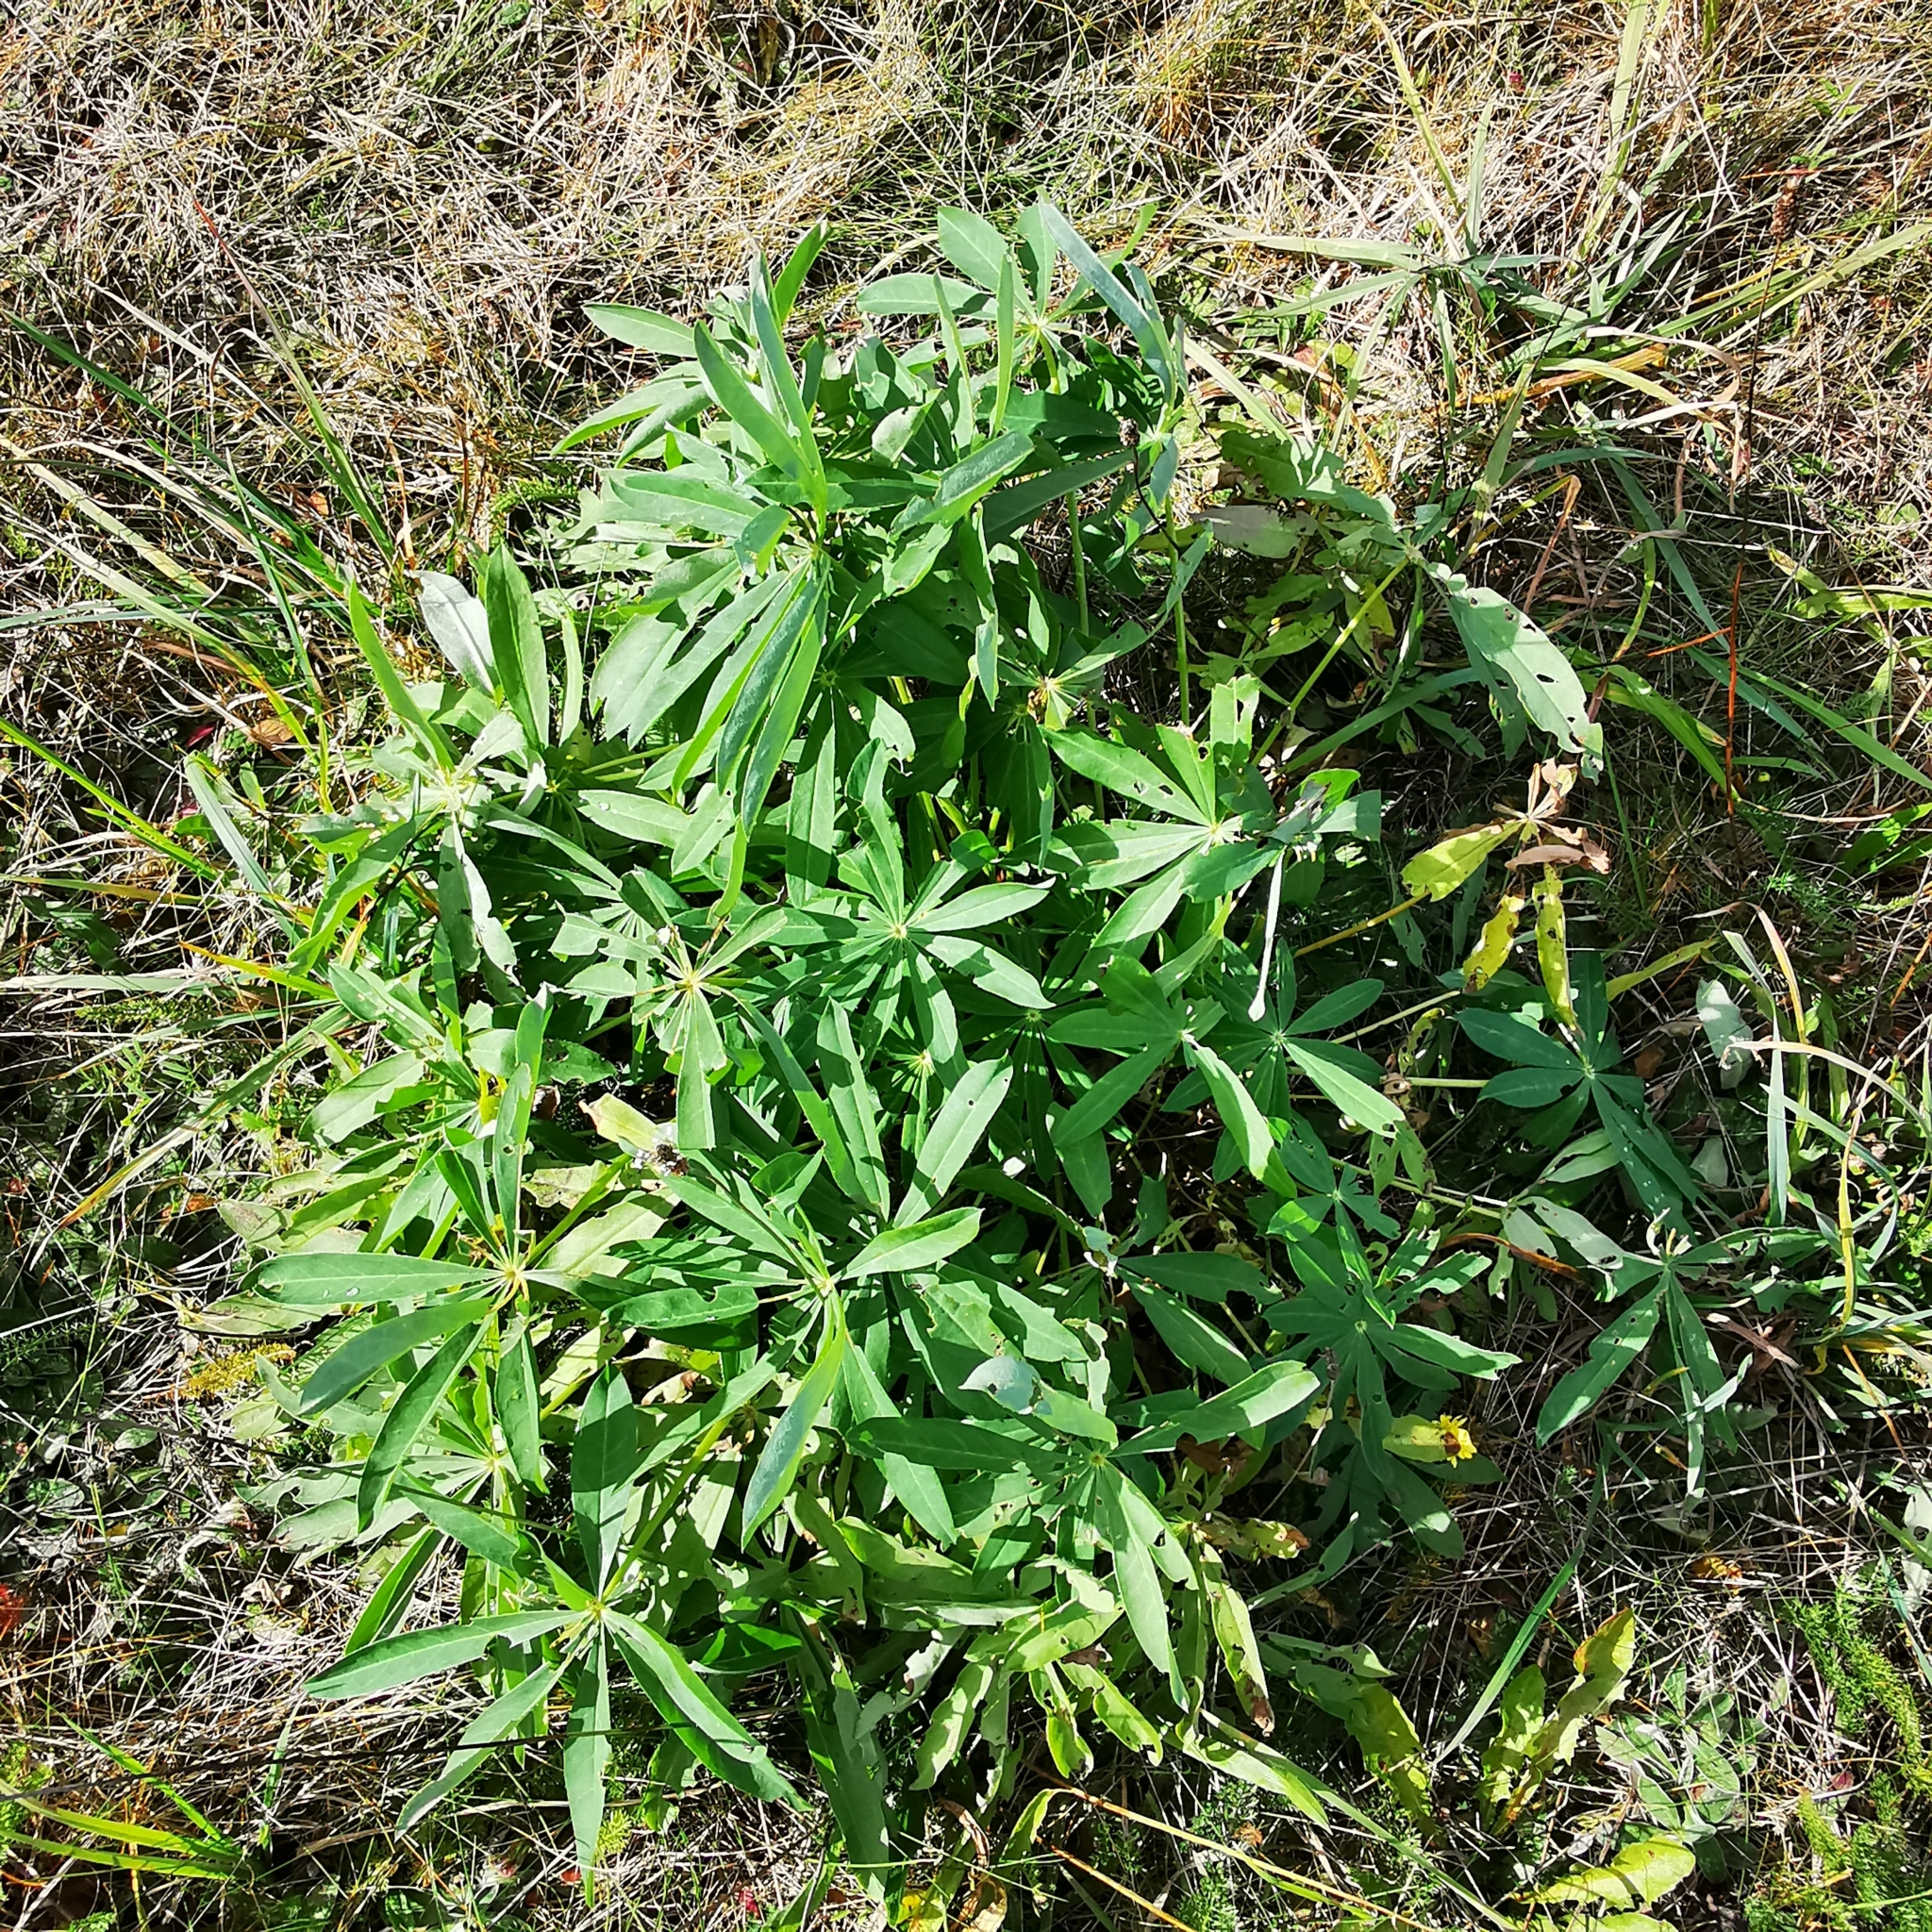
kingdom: Plantae
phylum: Tracheophyta
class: Magnoliopsida
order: Fabales
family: Fabaceae
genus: Lupinus
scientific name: Lupinus polyphyllus
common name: Garden lupin
